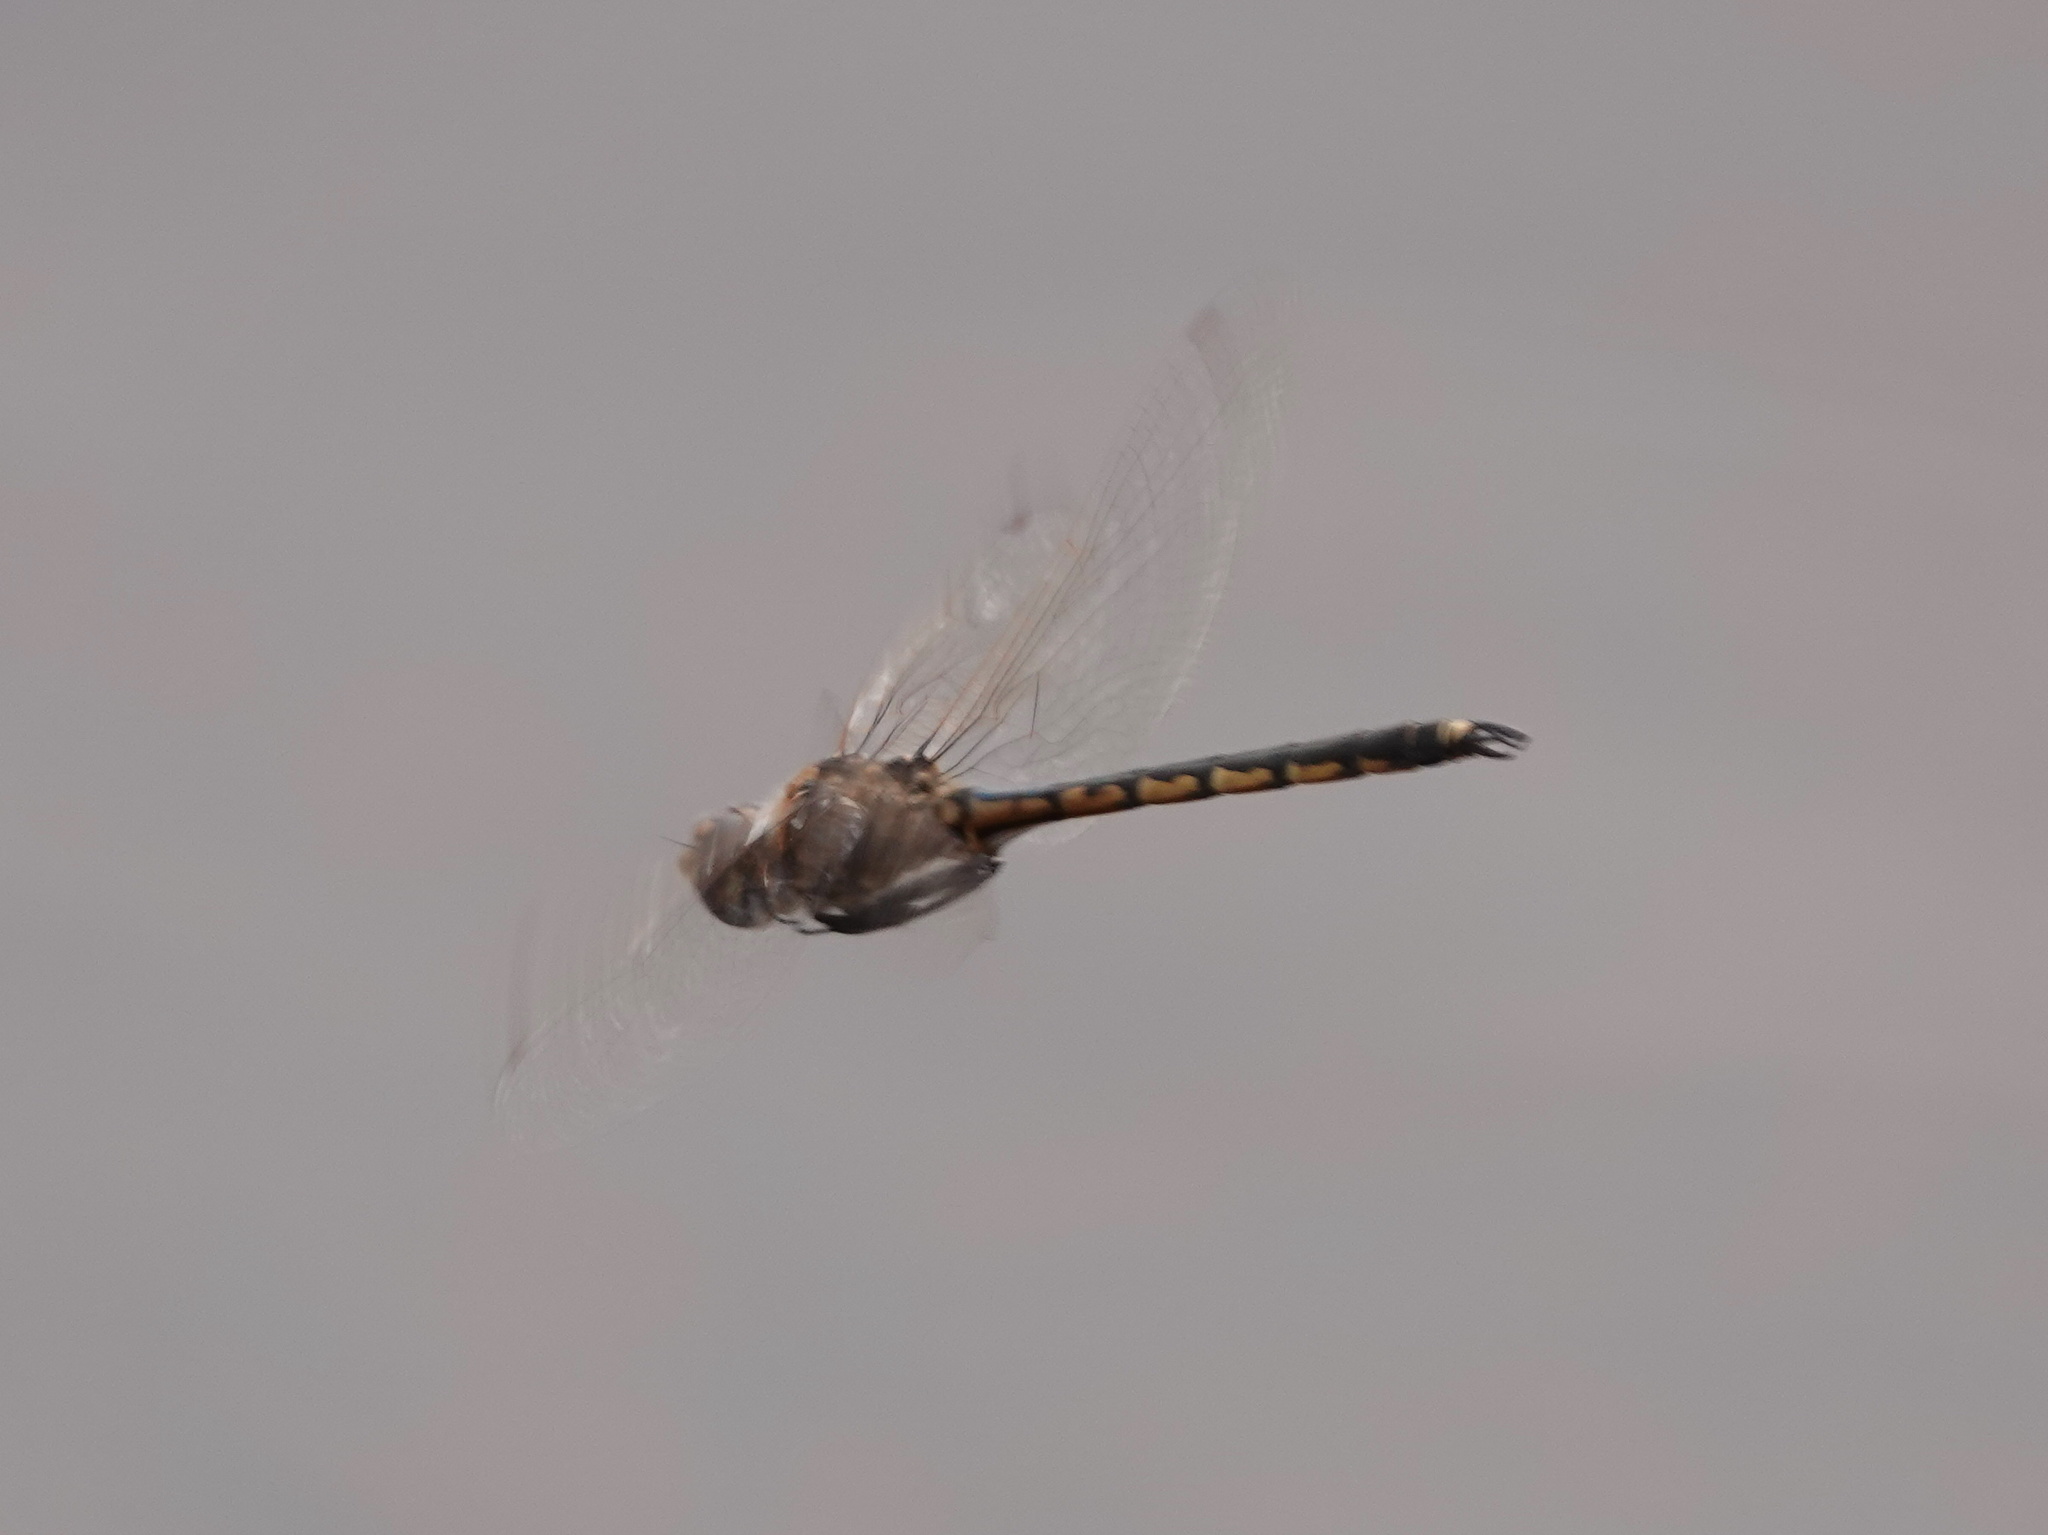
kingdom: Animalia
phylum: Arthropoda
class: Insecta
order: Odonata
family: Corduliidae
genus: Hemicordulia
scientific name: Hemicordulia tau
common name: Tau emerald
